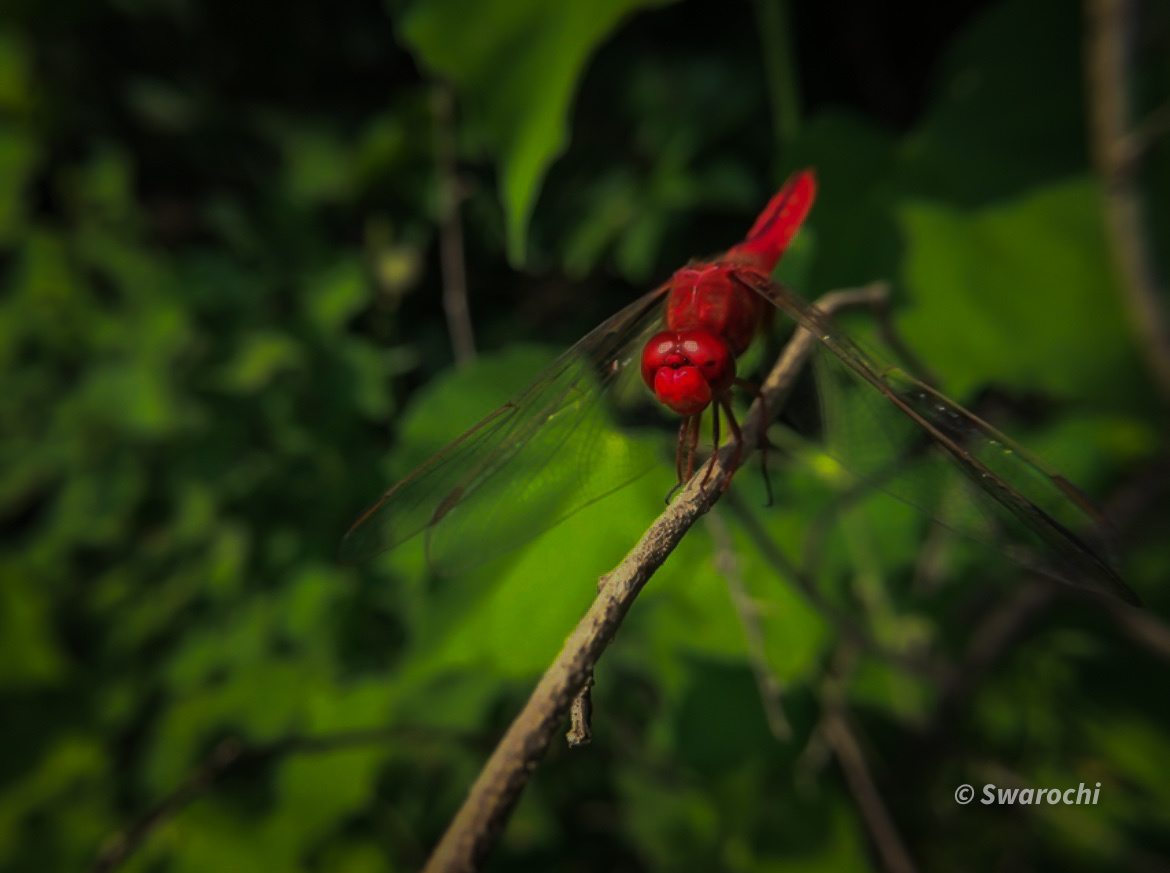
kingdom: Animalia
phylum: Arthropoda
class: Insecta
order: Odonata
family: Libellulidae
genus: Crocothemis
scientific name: Crocothemis servilia
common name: Scarlet skimmer
